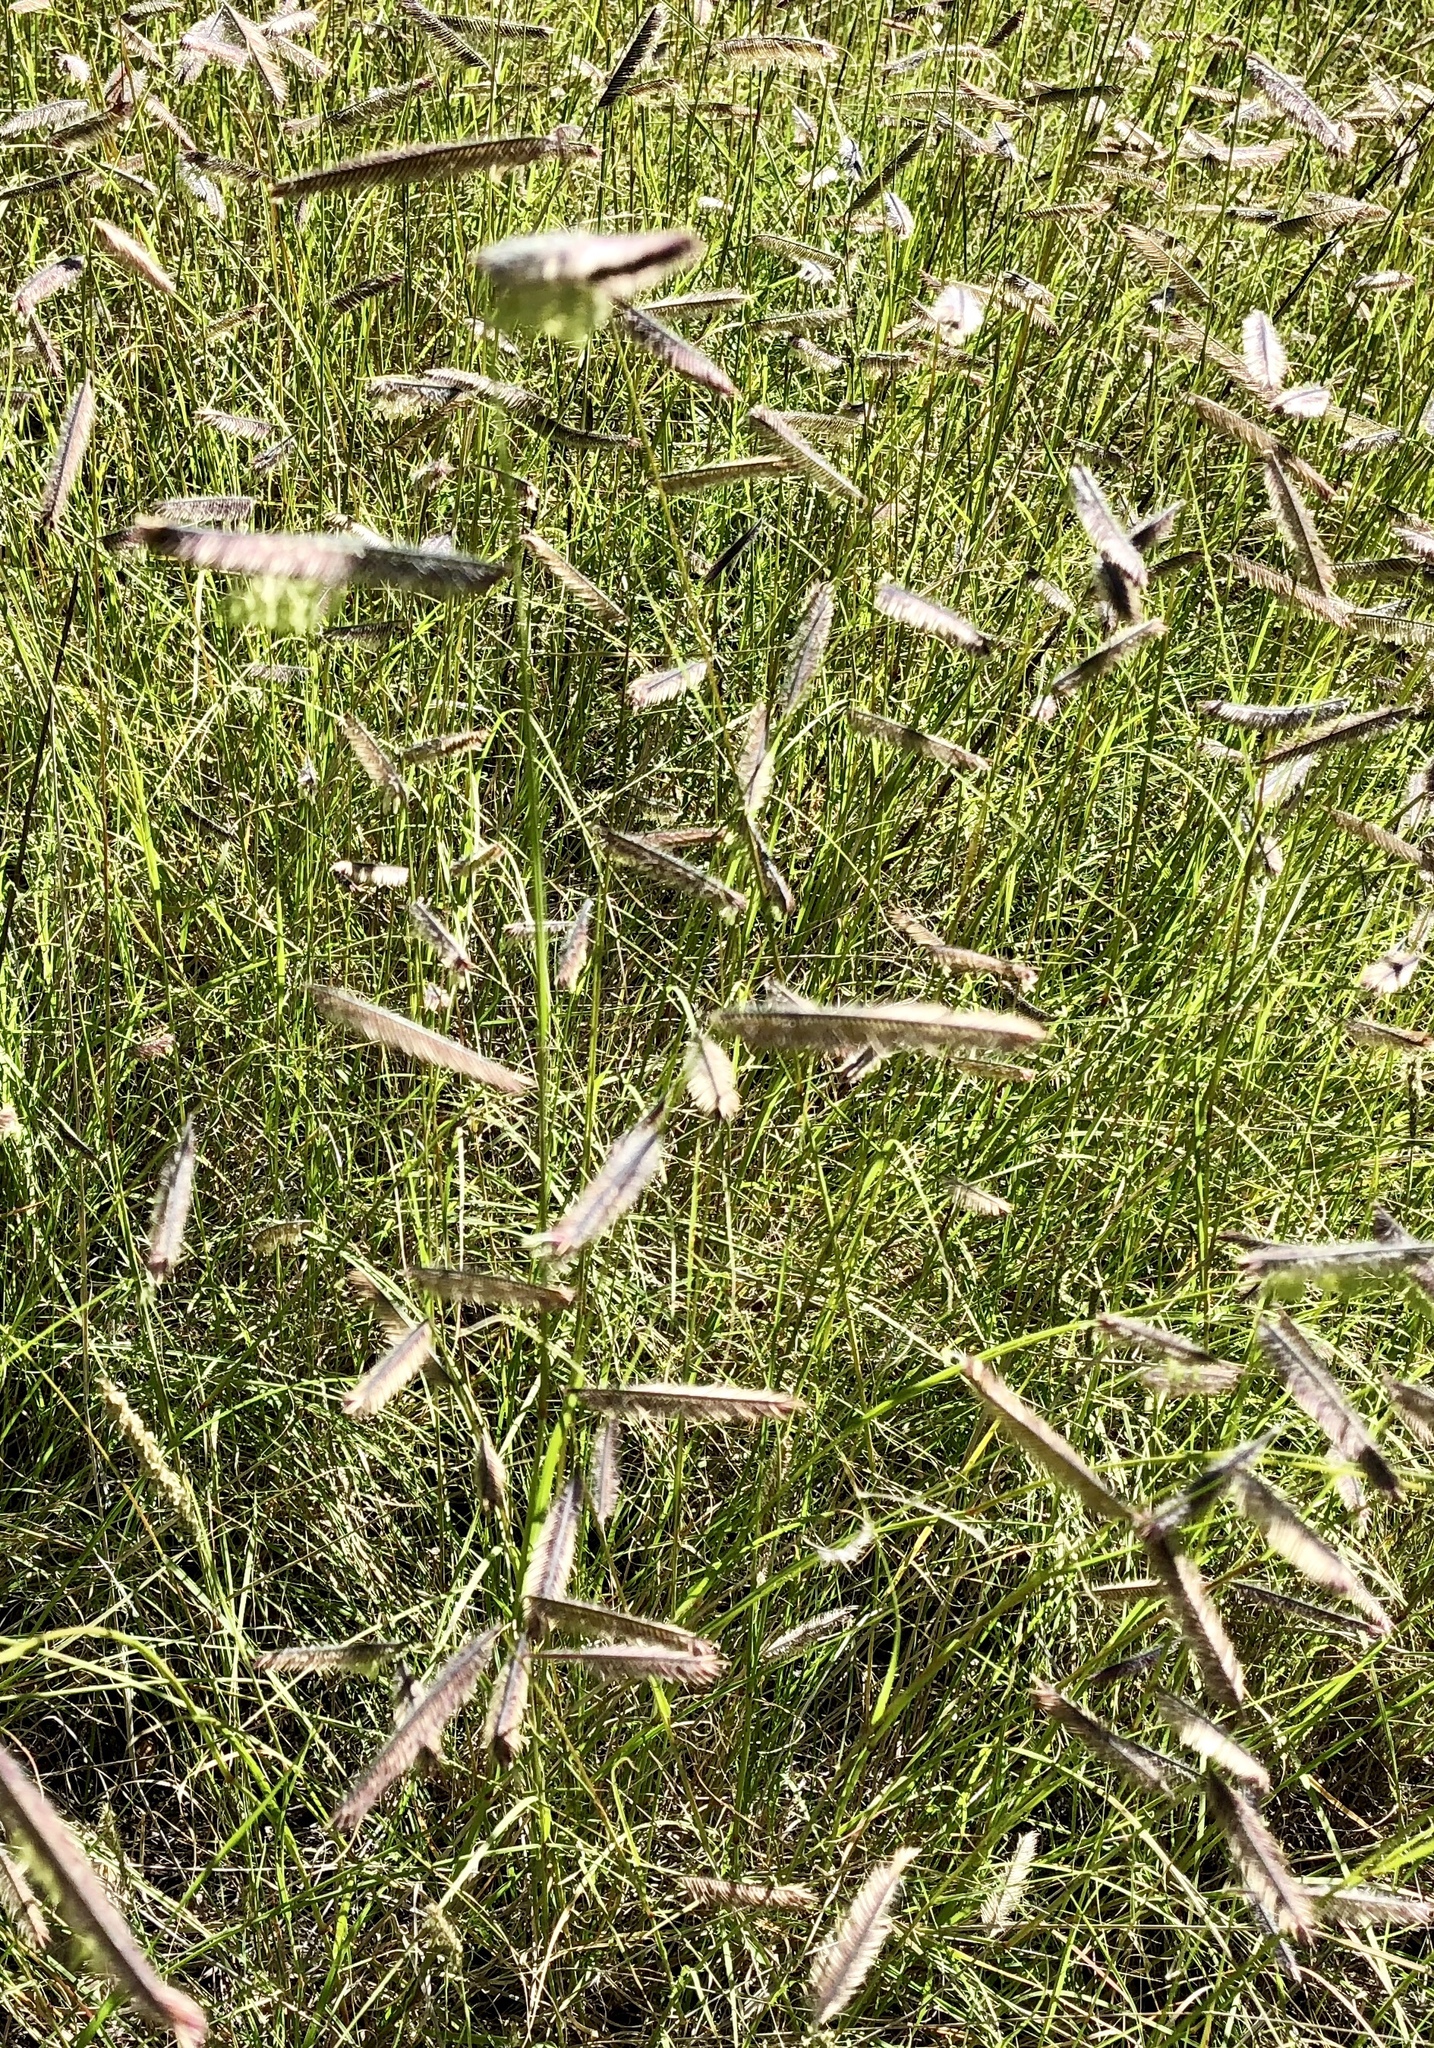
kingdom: Plantae
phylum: Tracheophyta
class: Liliopsida
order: Poales
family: Poaceae
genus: Bouteloua
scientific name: Bouteloua gracilis
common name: Blue grama
